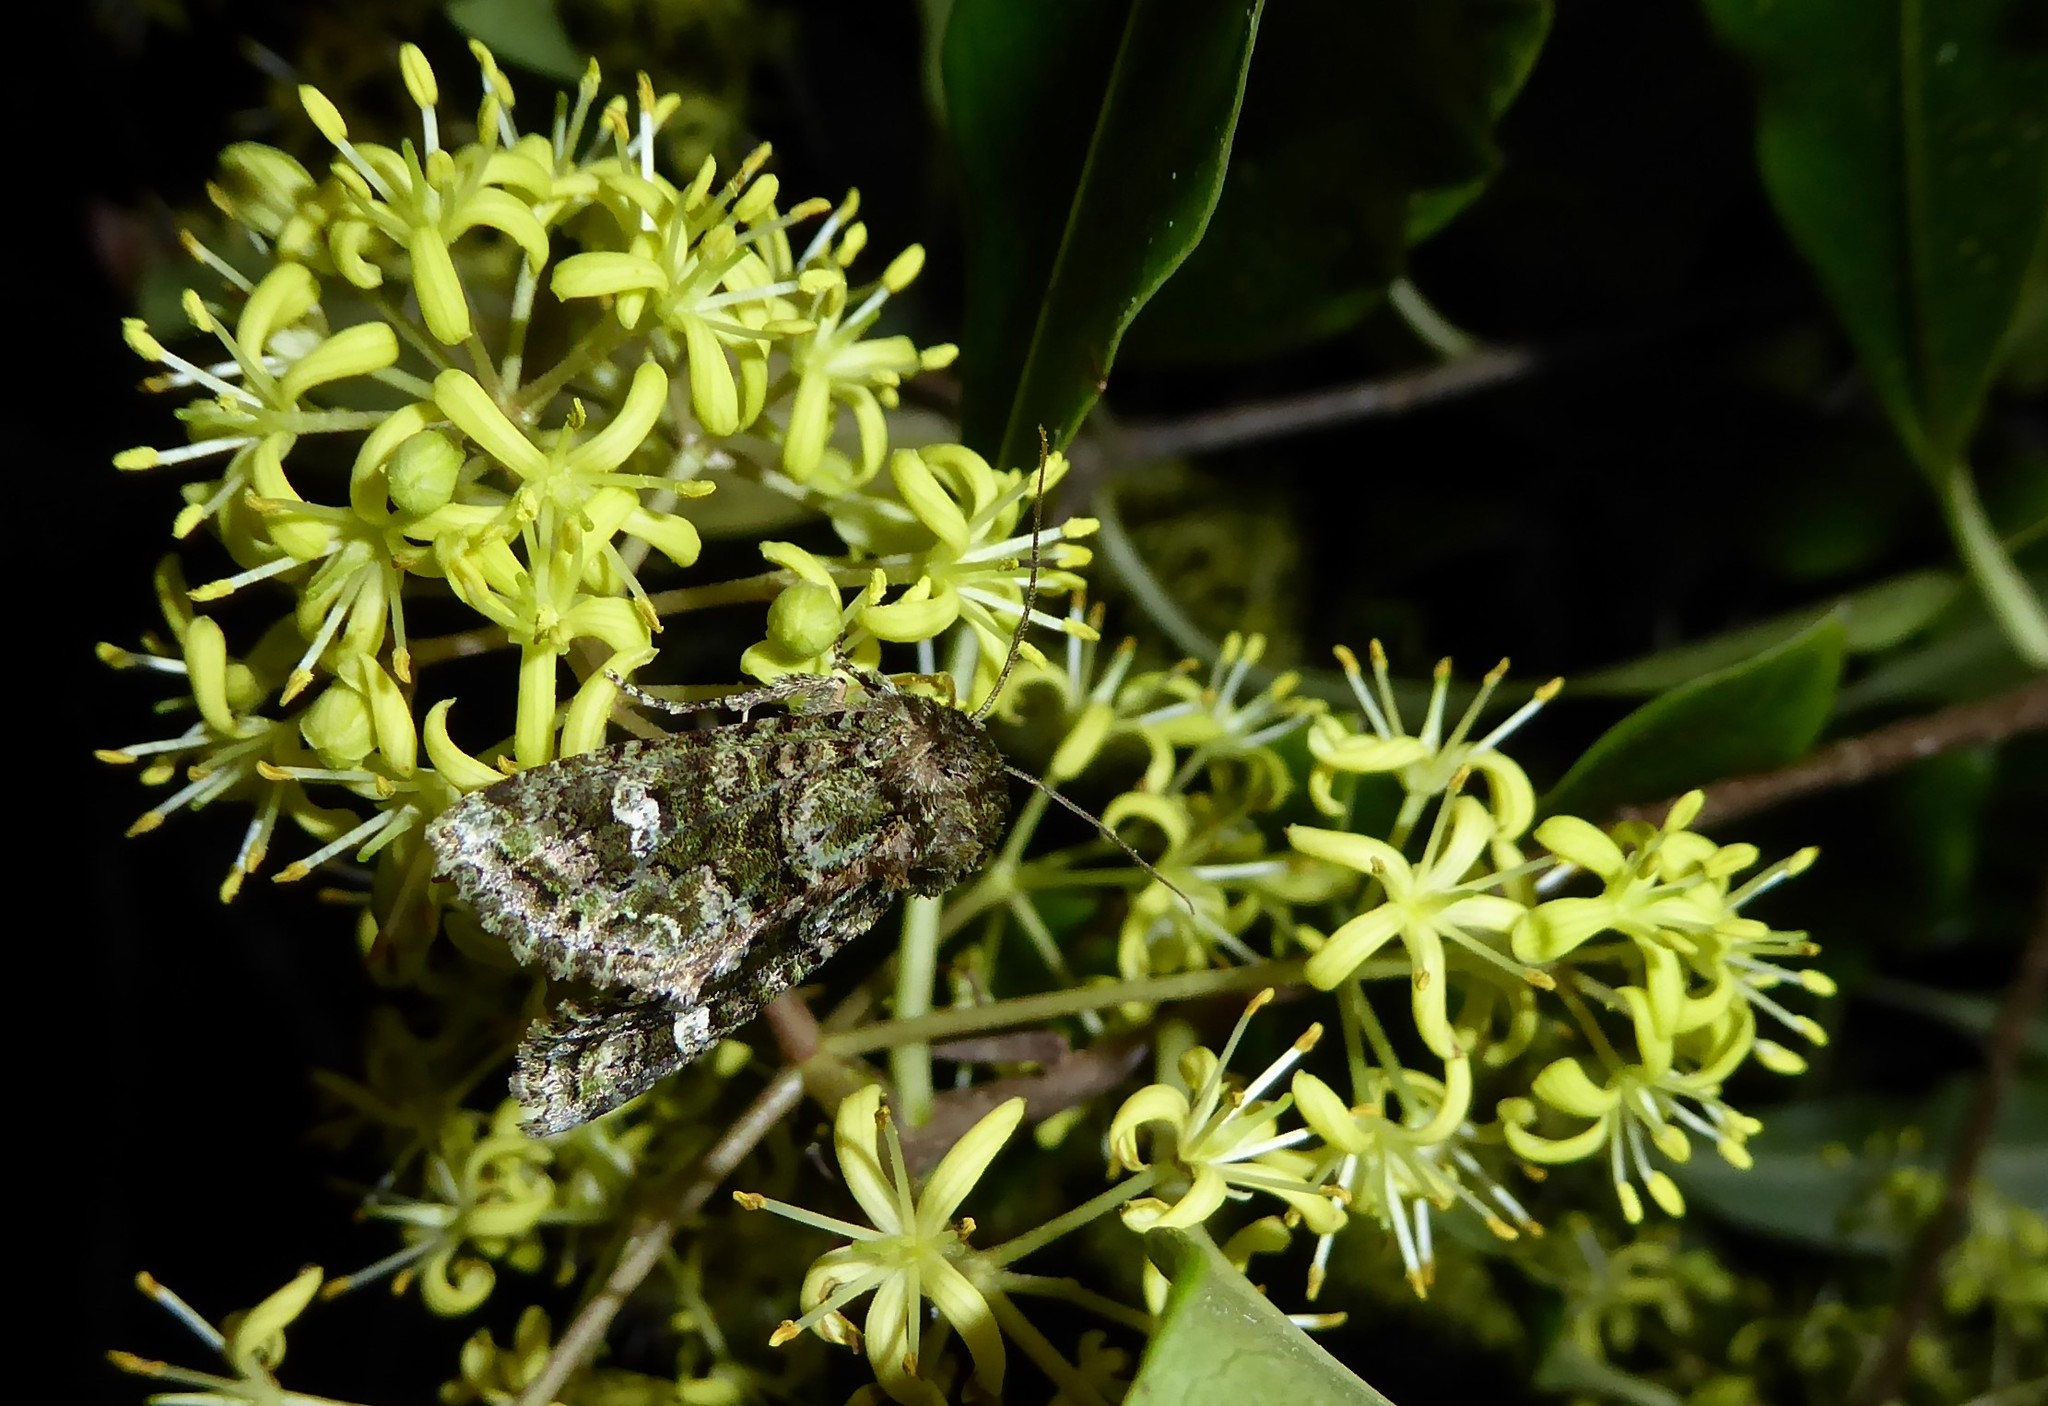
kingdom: Animalia
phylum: Arthropoda
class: Insecta
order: Lepidoptera
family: Noctuidae
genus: Ichneutica
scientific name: Ichneutica
